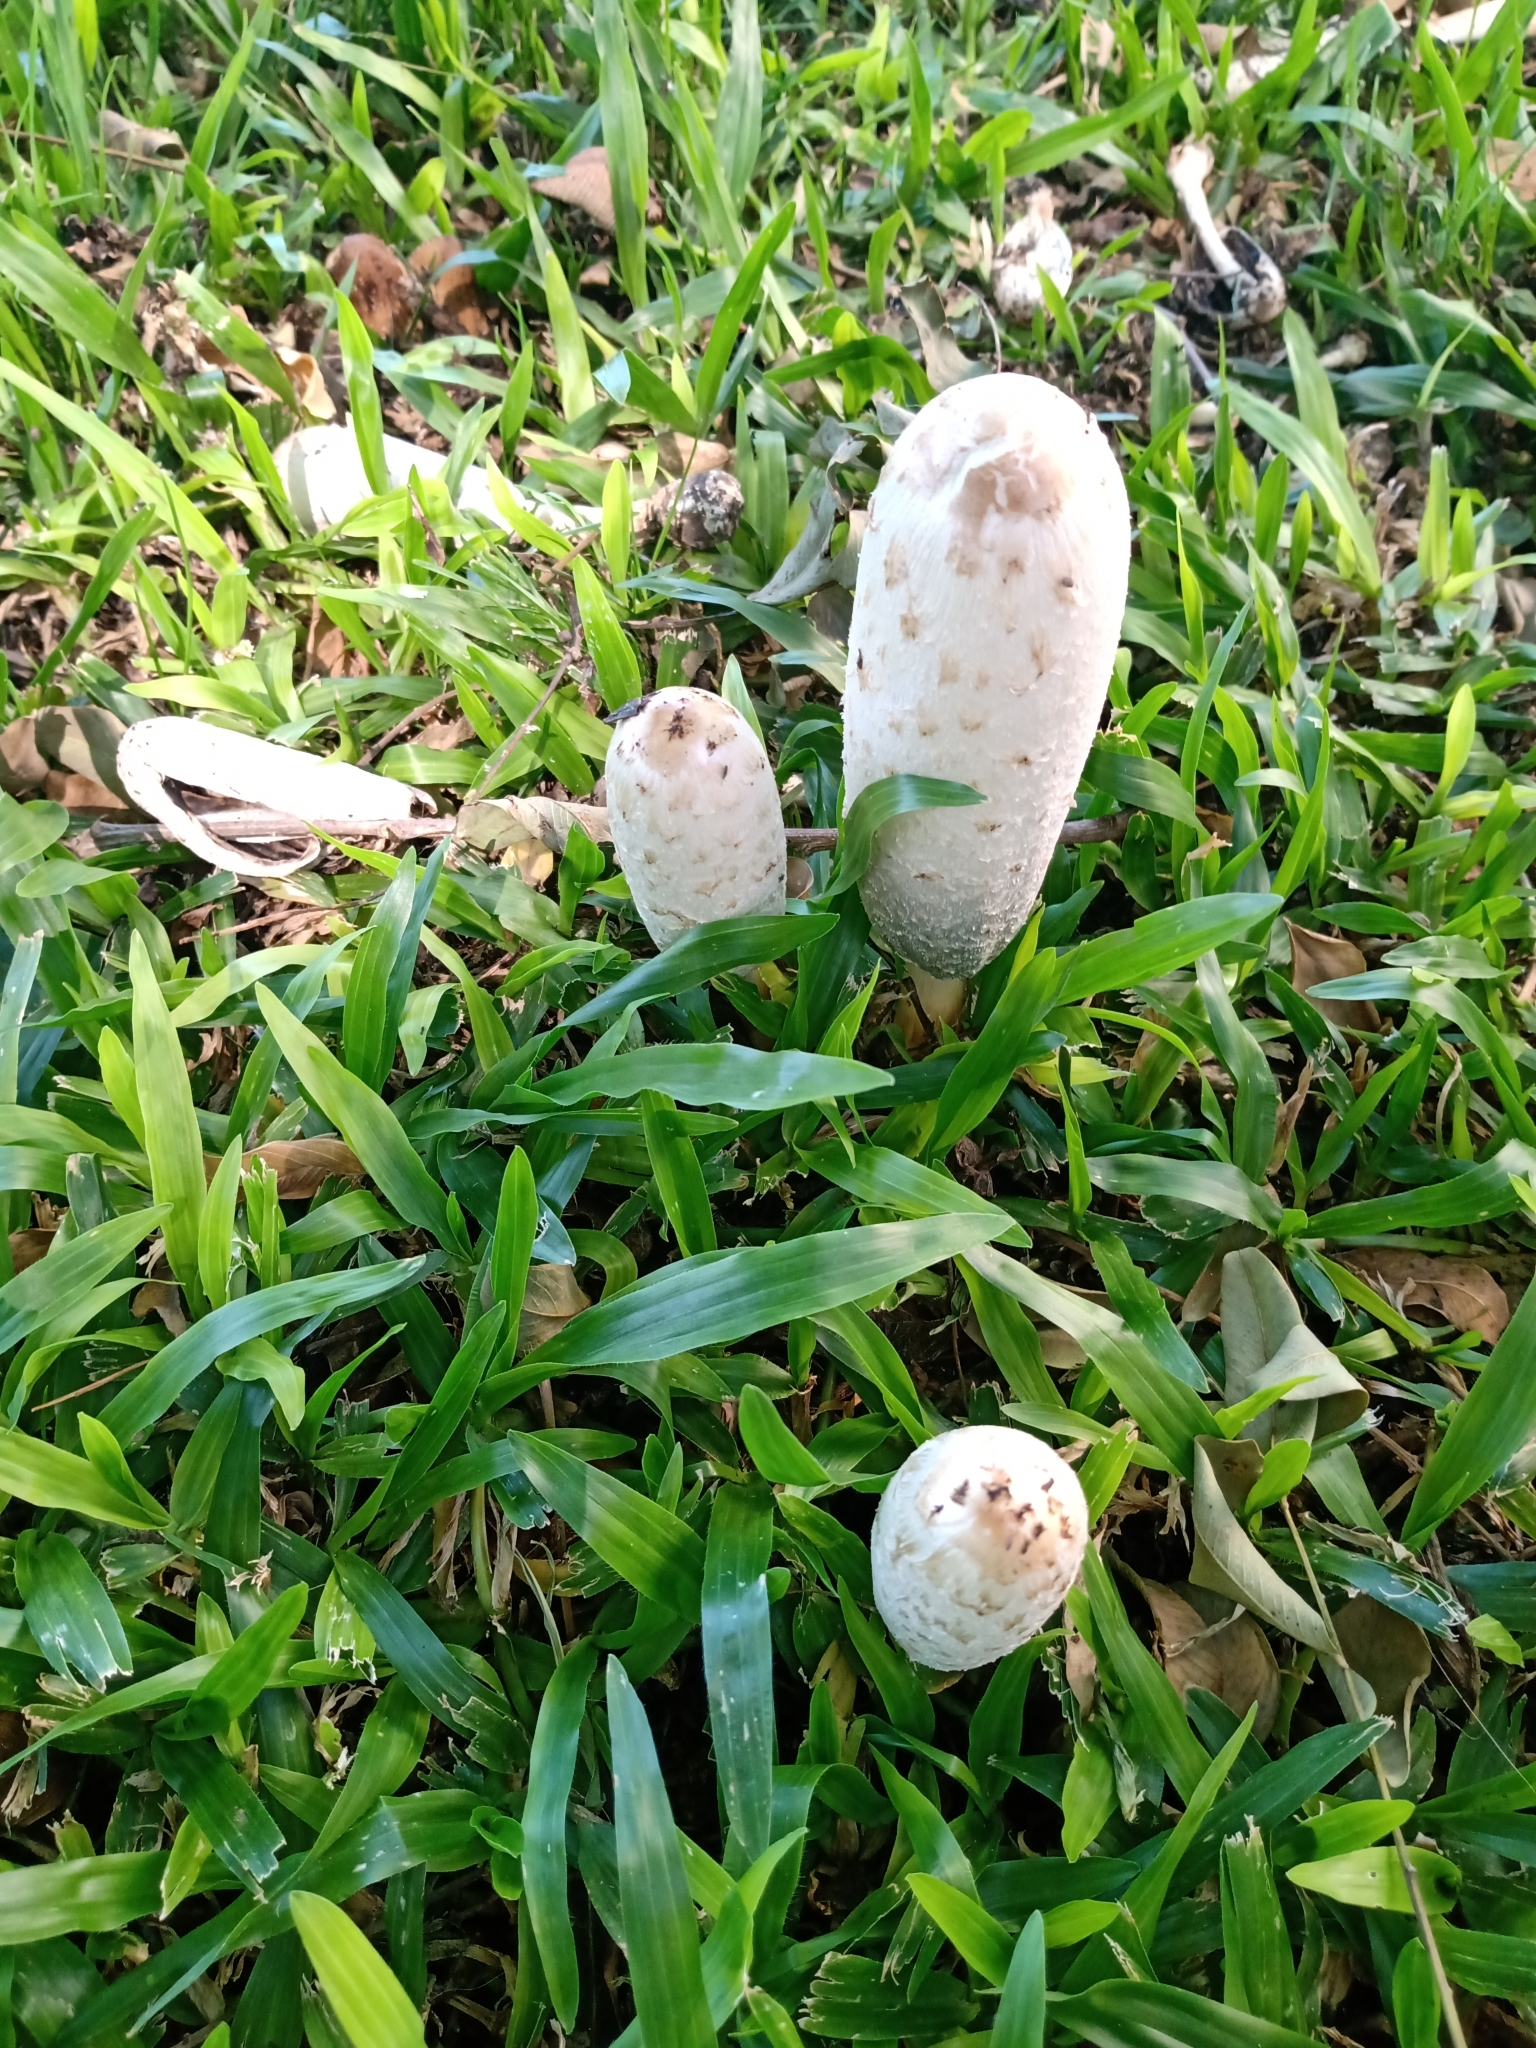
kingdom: Fungi
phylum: Basidiomycota
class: Agaricomycetes
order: Agaricales
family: Agaricaceae
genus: Coprinus
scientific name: Coprinus comatus
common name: Lawyer's wig
